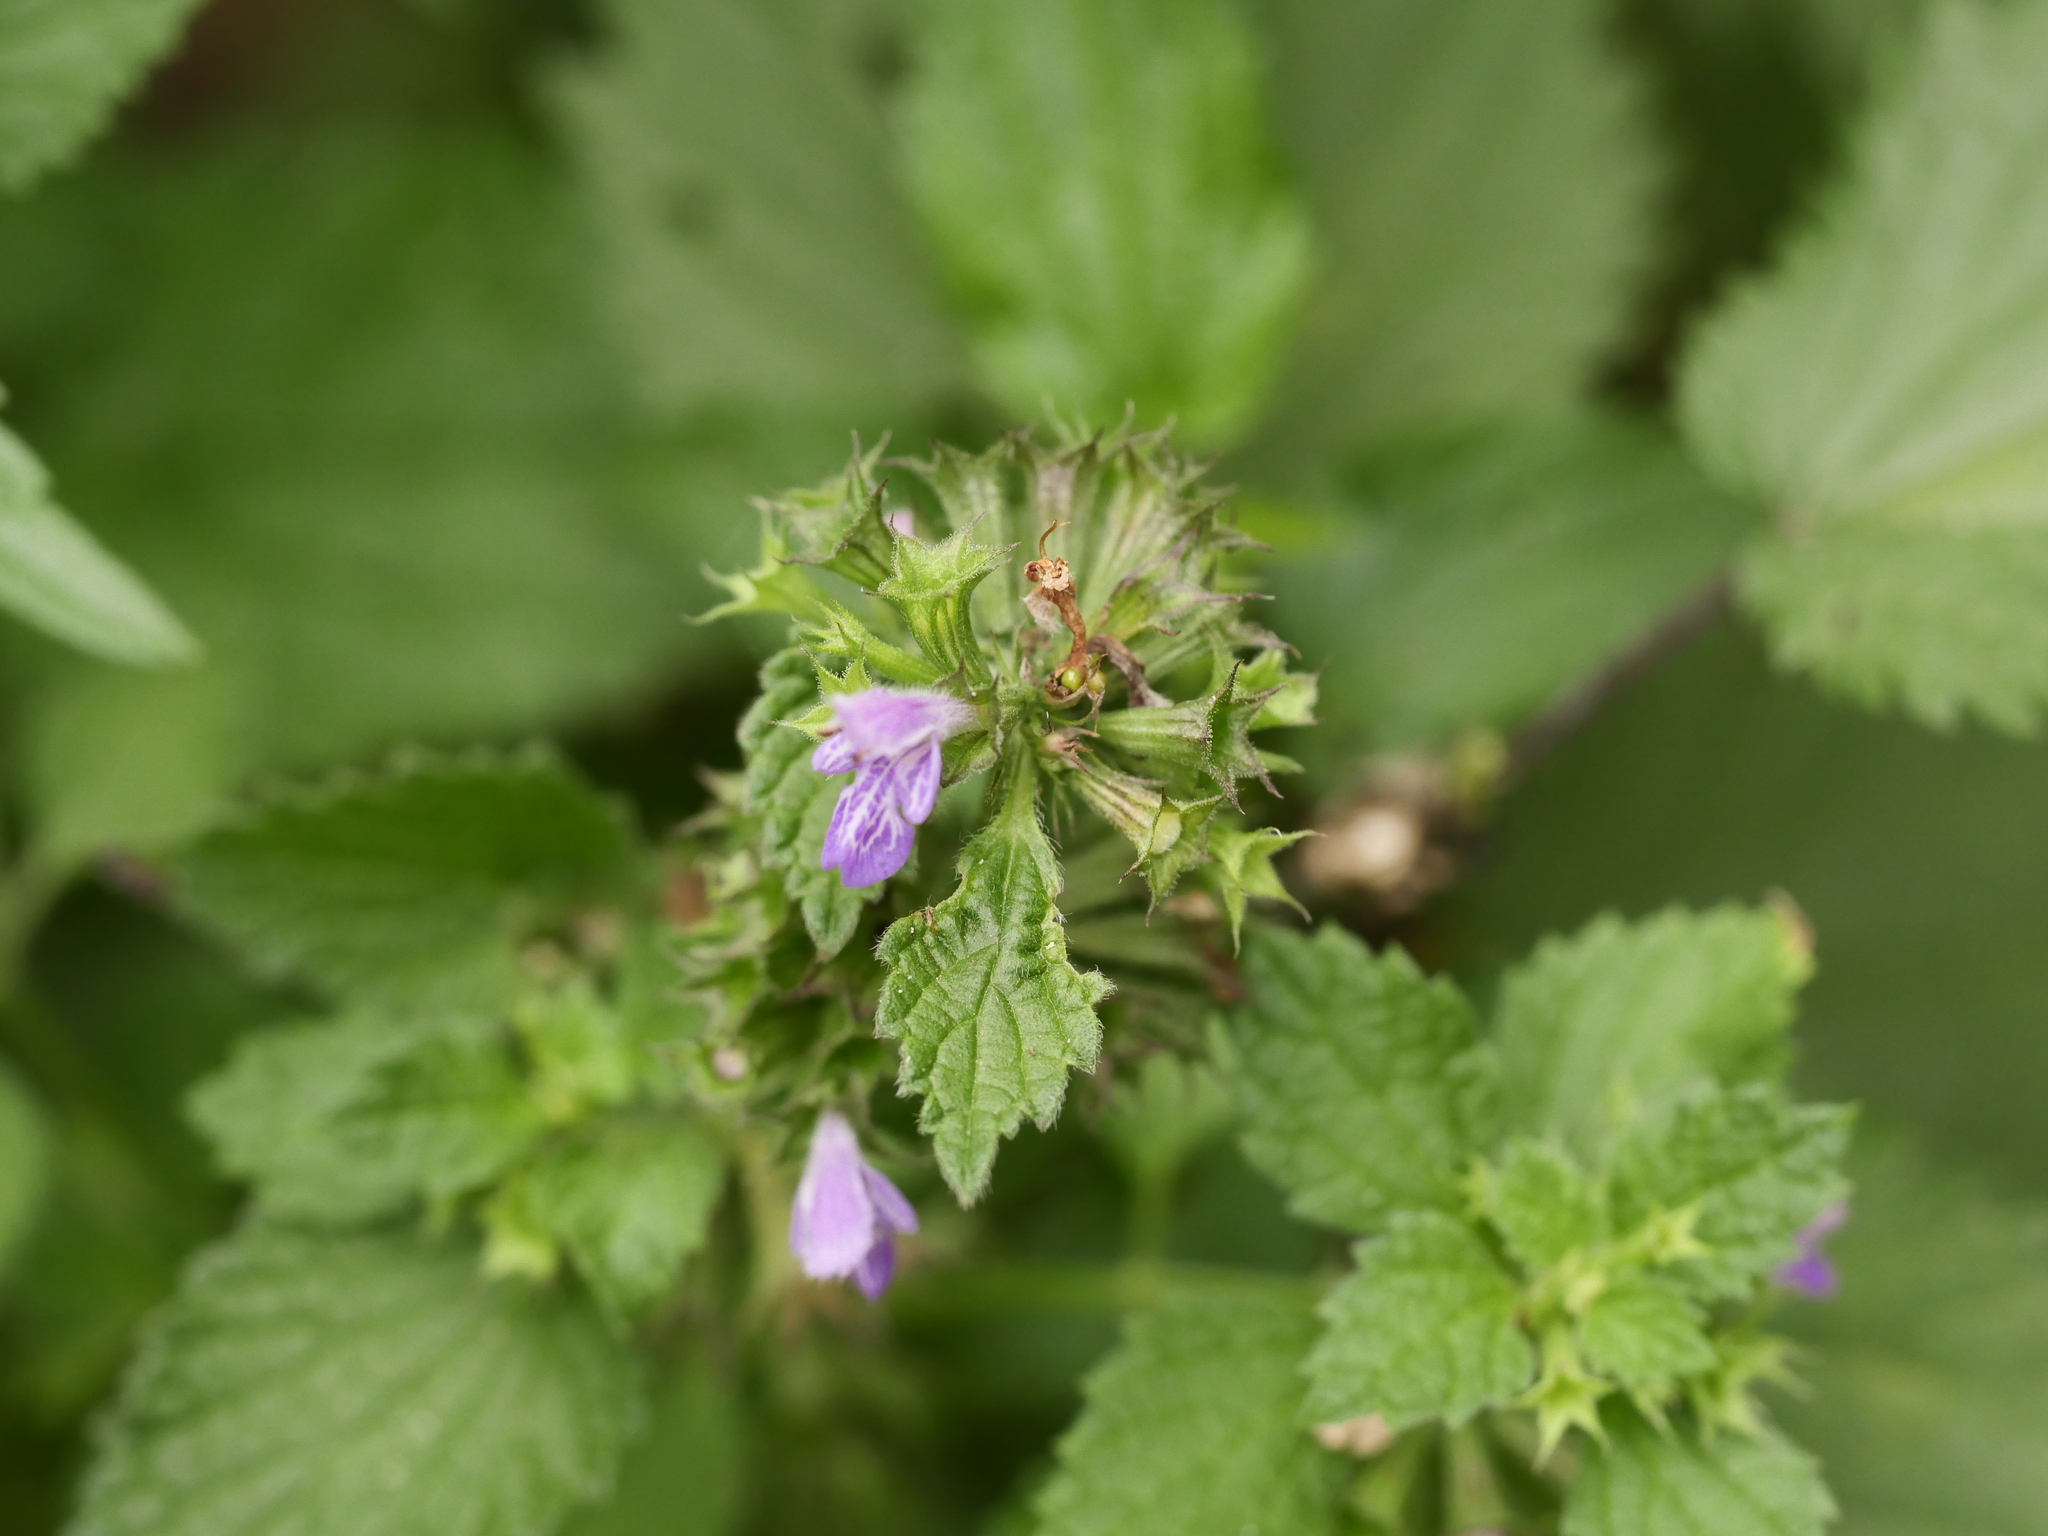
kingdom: Plantae
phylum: Tracheophyta
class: Magnoliopsida
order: Lamiales
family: Lamiaceae
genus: Ballota
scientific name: Ballota nigra
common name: Black horehound
